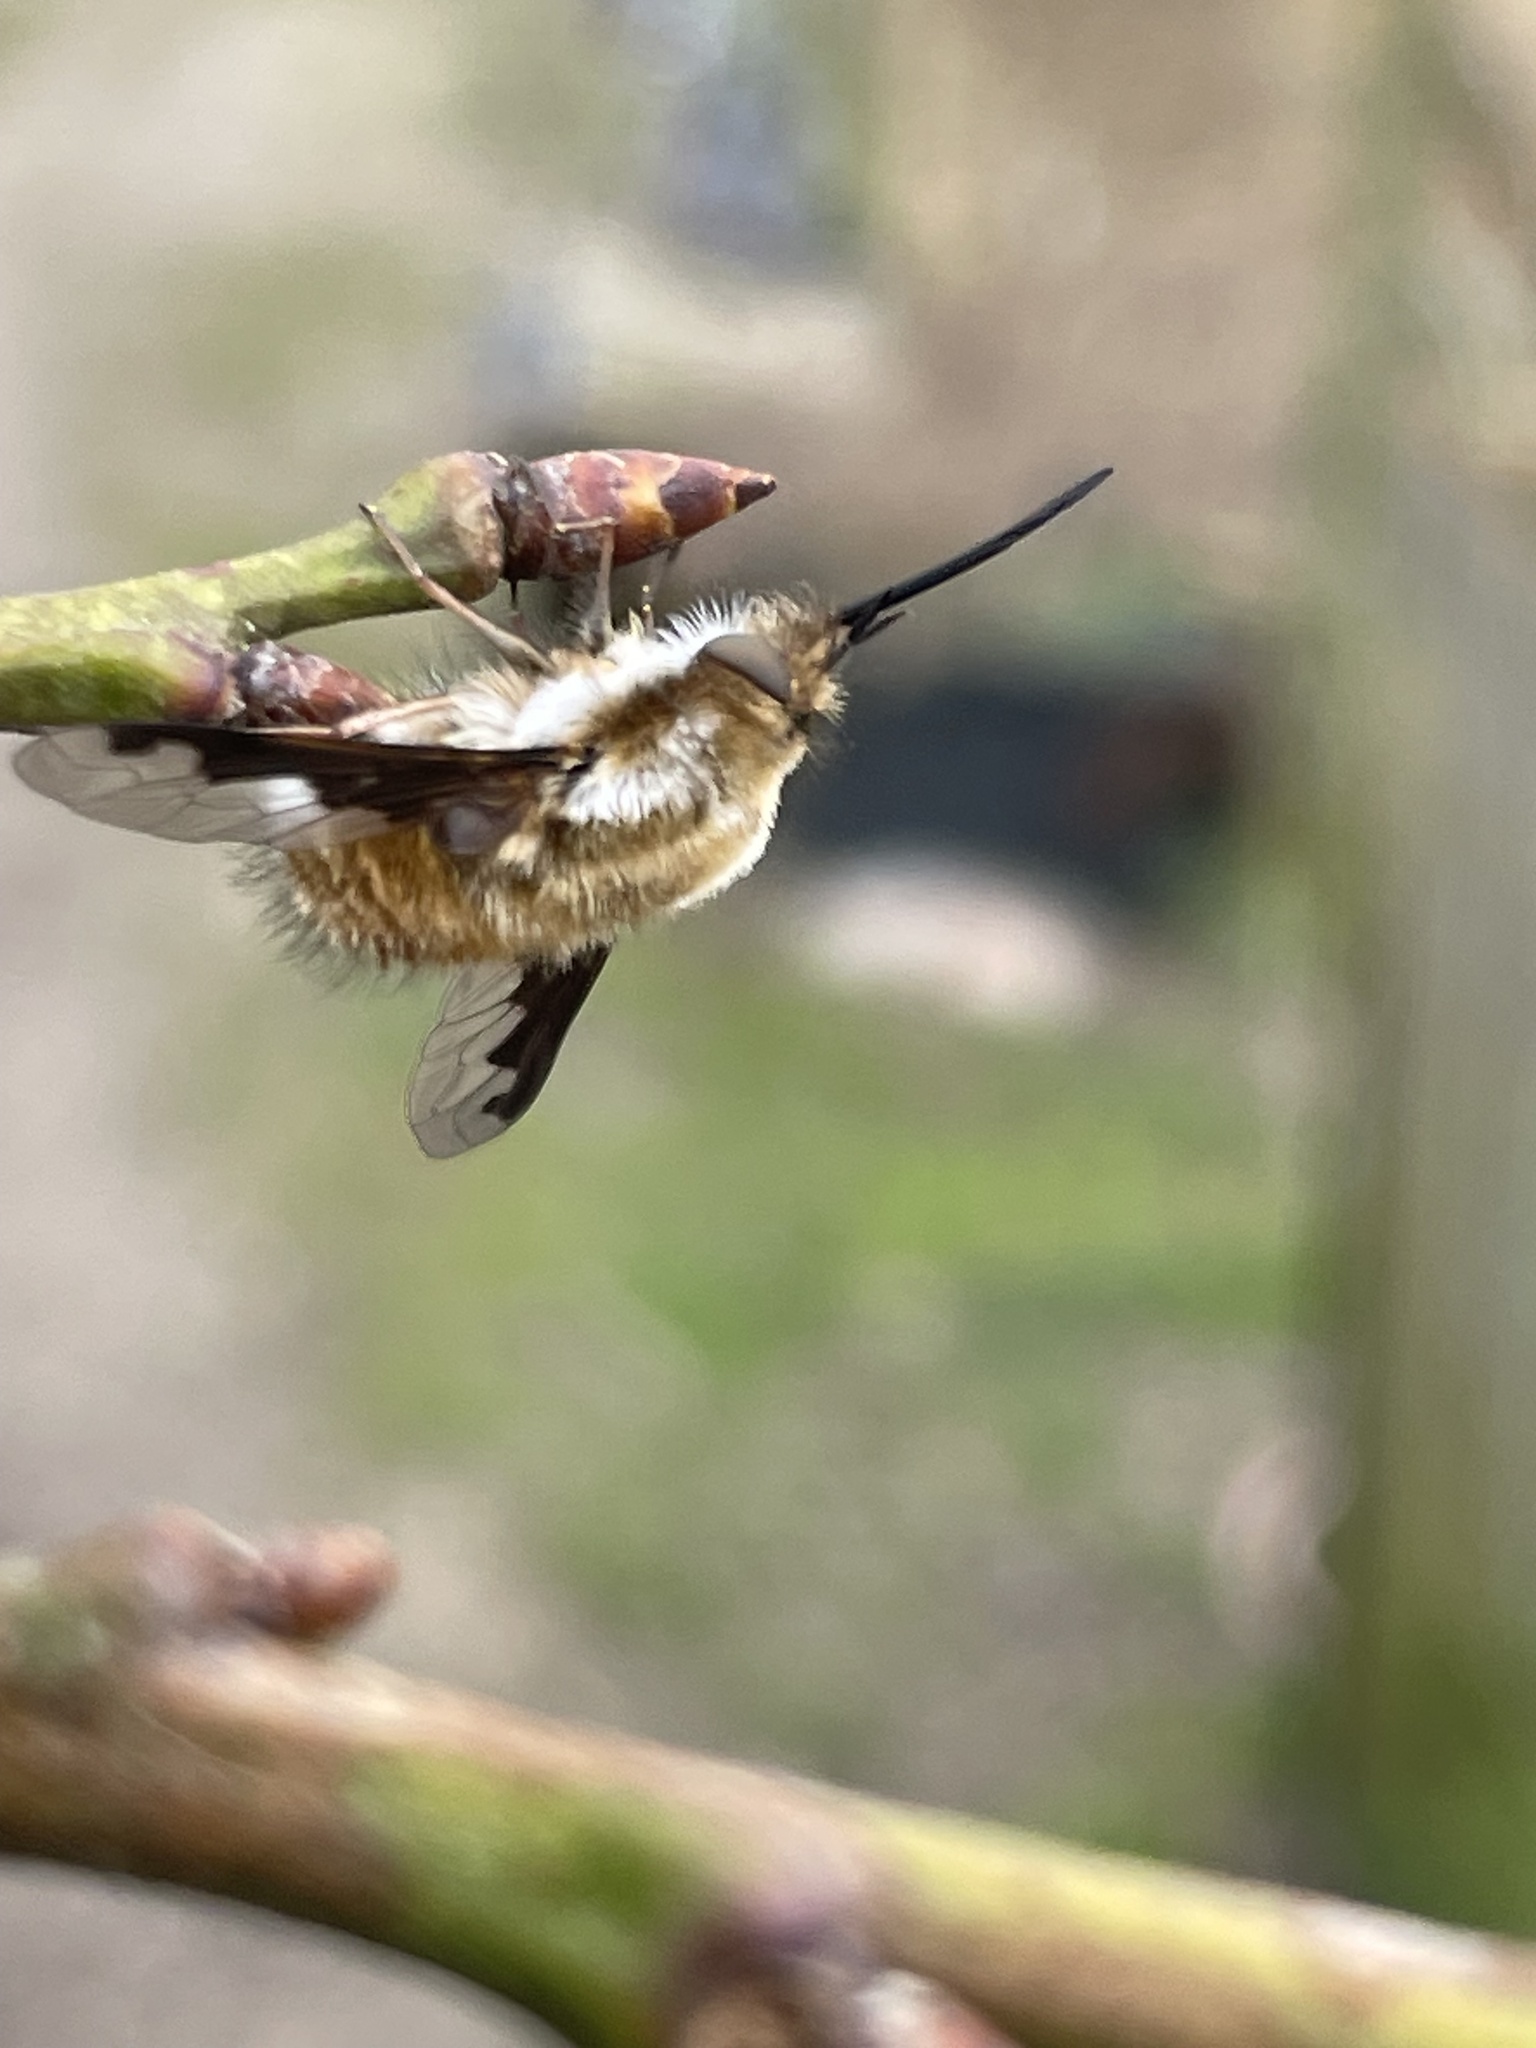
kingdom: Animalia
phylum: Arthropoda
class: Insecta
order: Diptera
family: Bombyliidae
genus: Bombylius
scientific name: Bombylius major
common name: Bee fly
